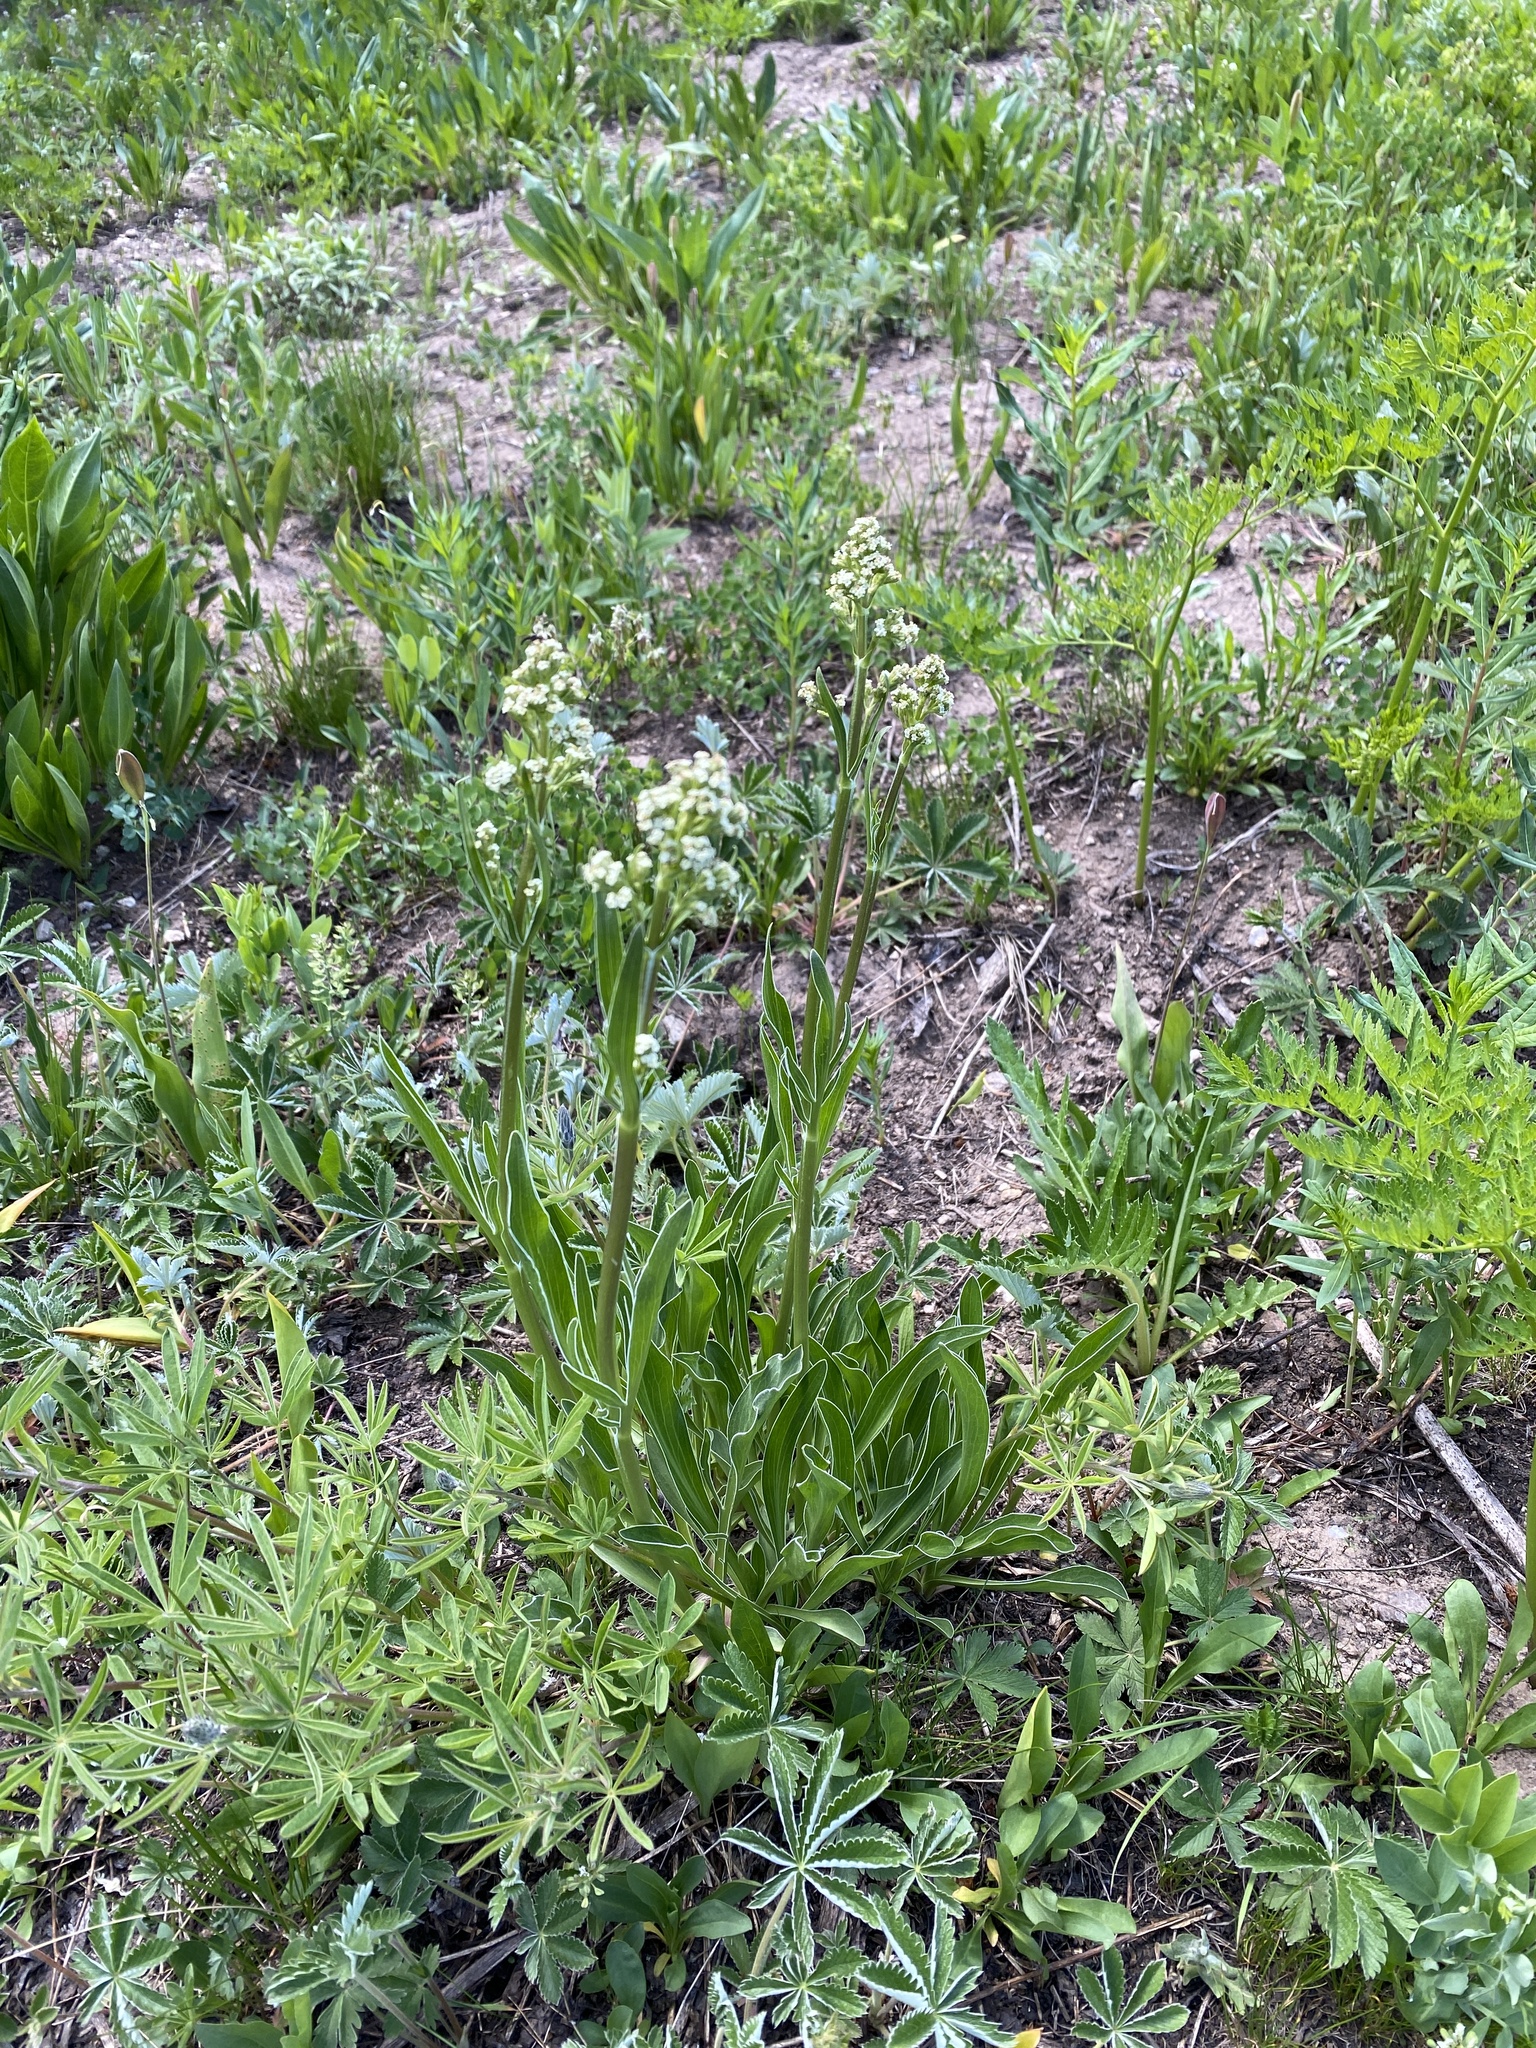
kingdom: Plantae
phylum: Tracheophyta
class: Magnoliopsida
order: Dipsacales
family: Caprifoliaceae
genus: Valeriana
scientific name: Valeriana edulis
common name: Taproot valerian
